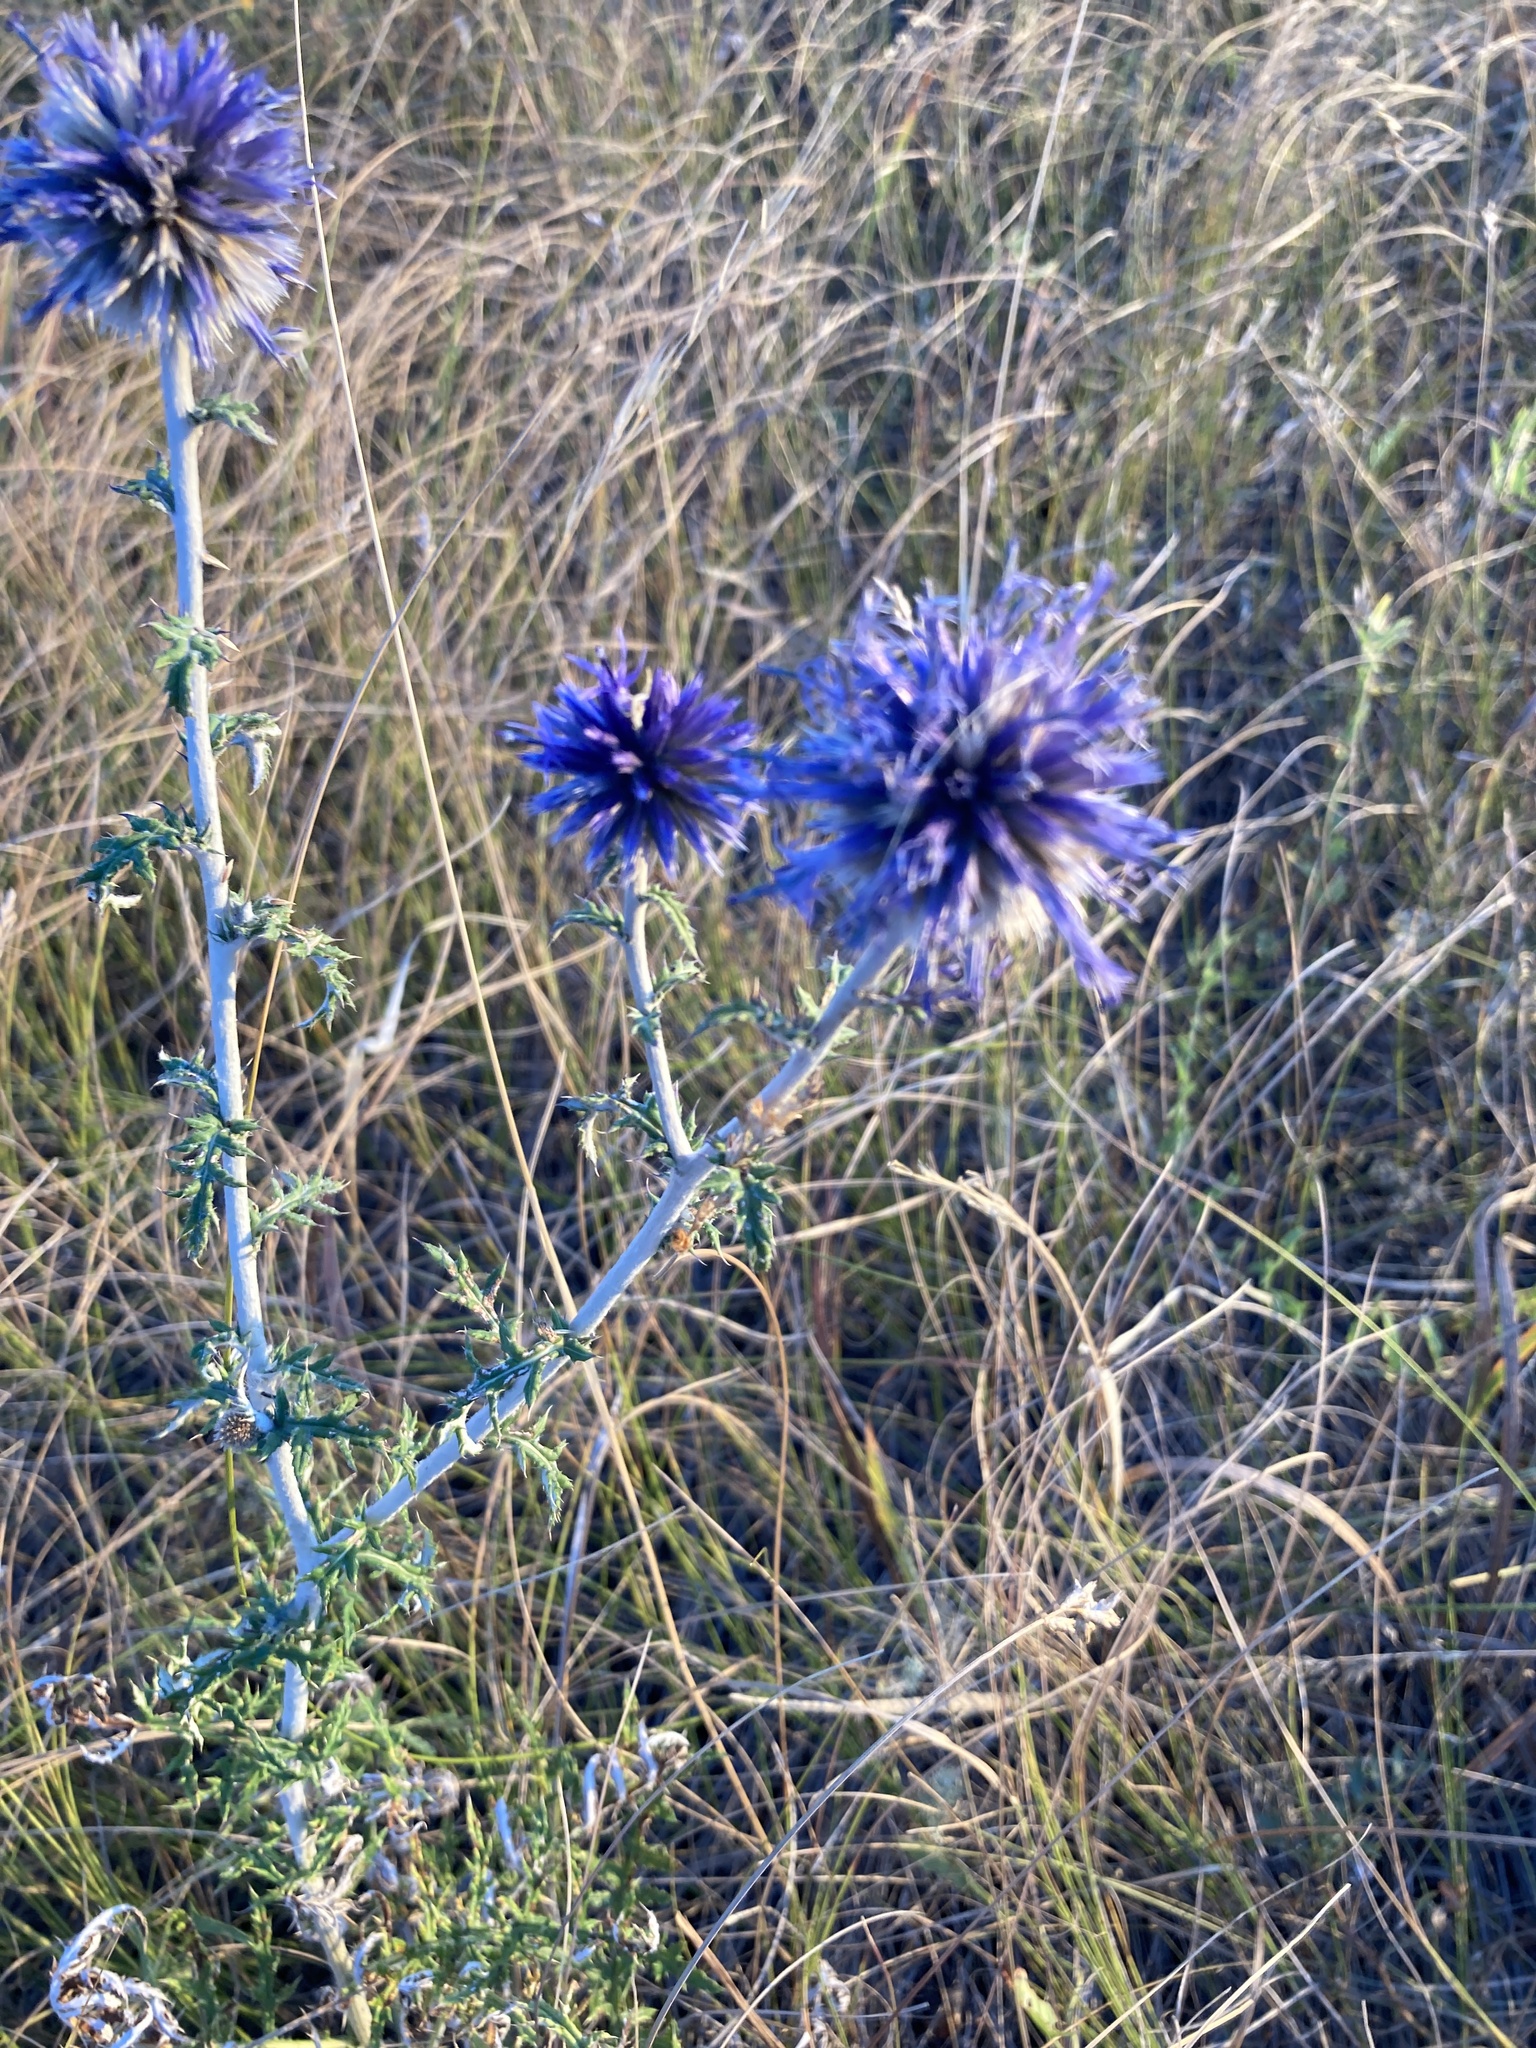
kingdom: Plantae
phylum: Tracheophyta
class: Magnoliopsida
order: Asterales
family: Asteraceae
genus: Echinops
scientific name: Echinops ritro
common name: Globe thistle
